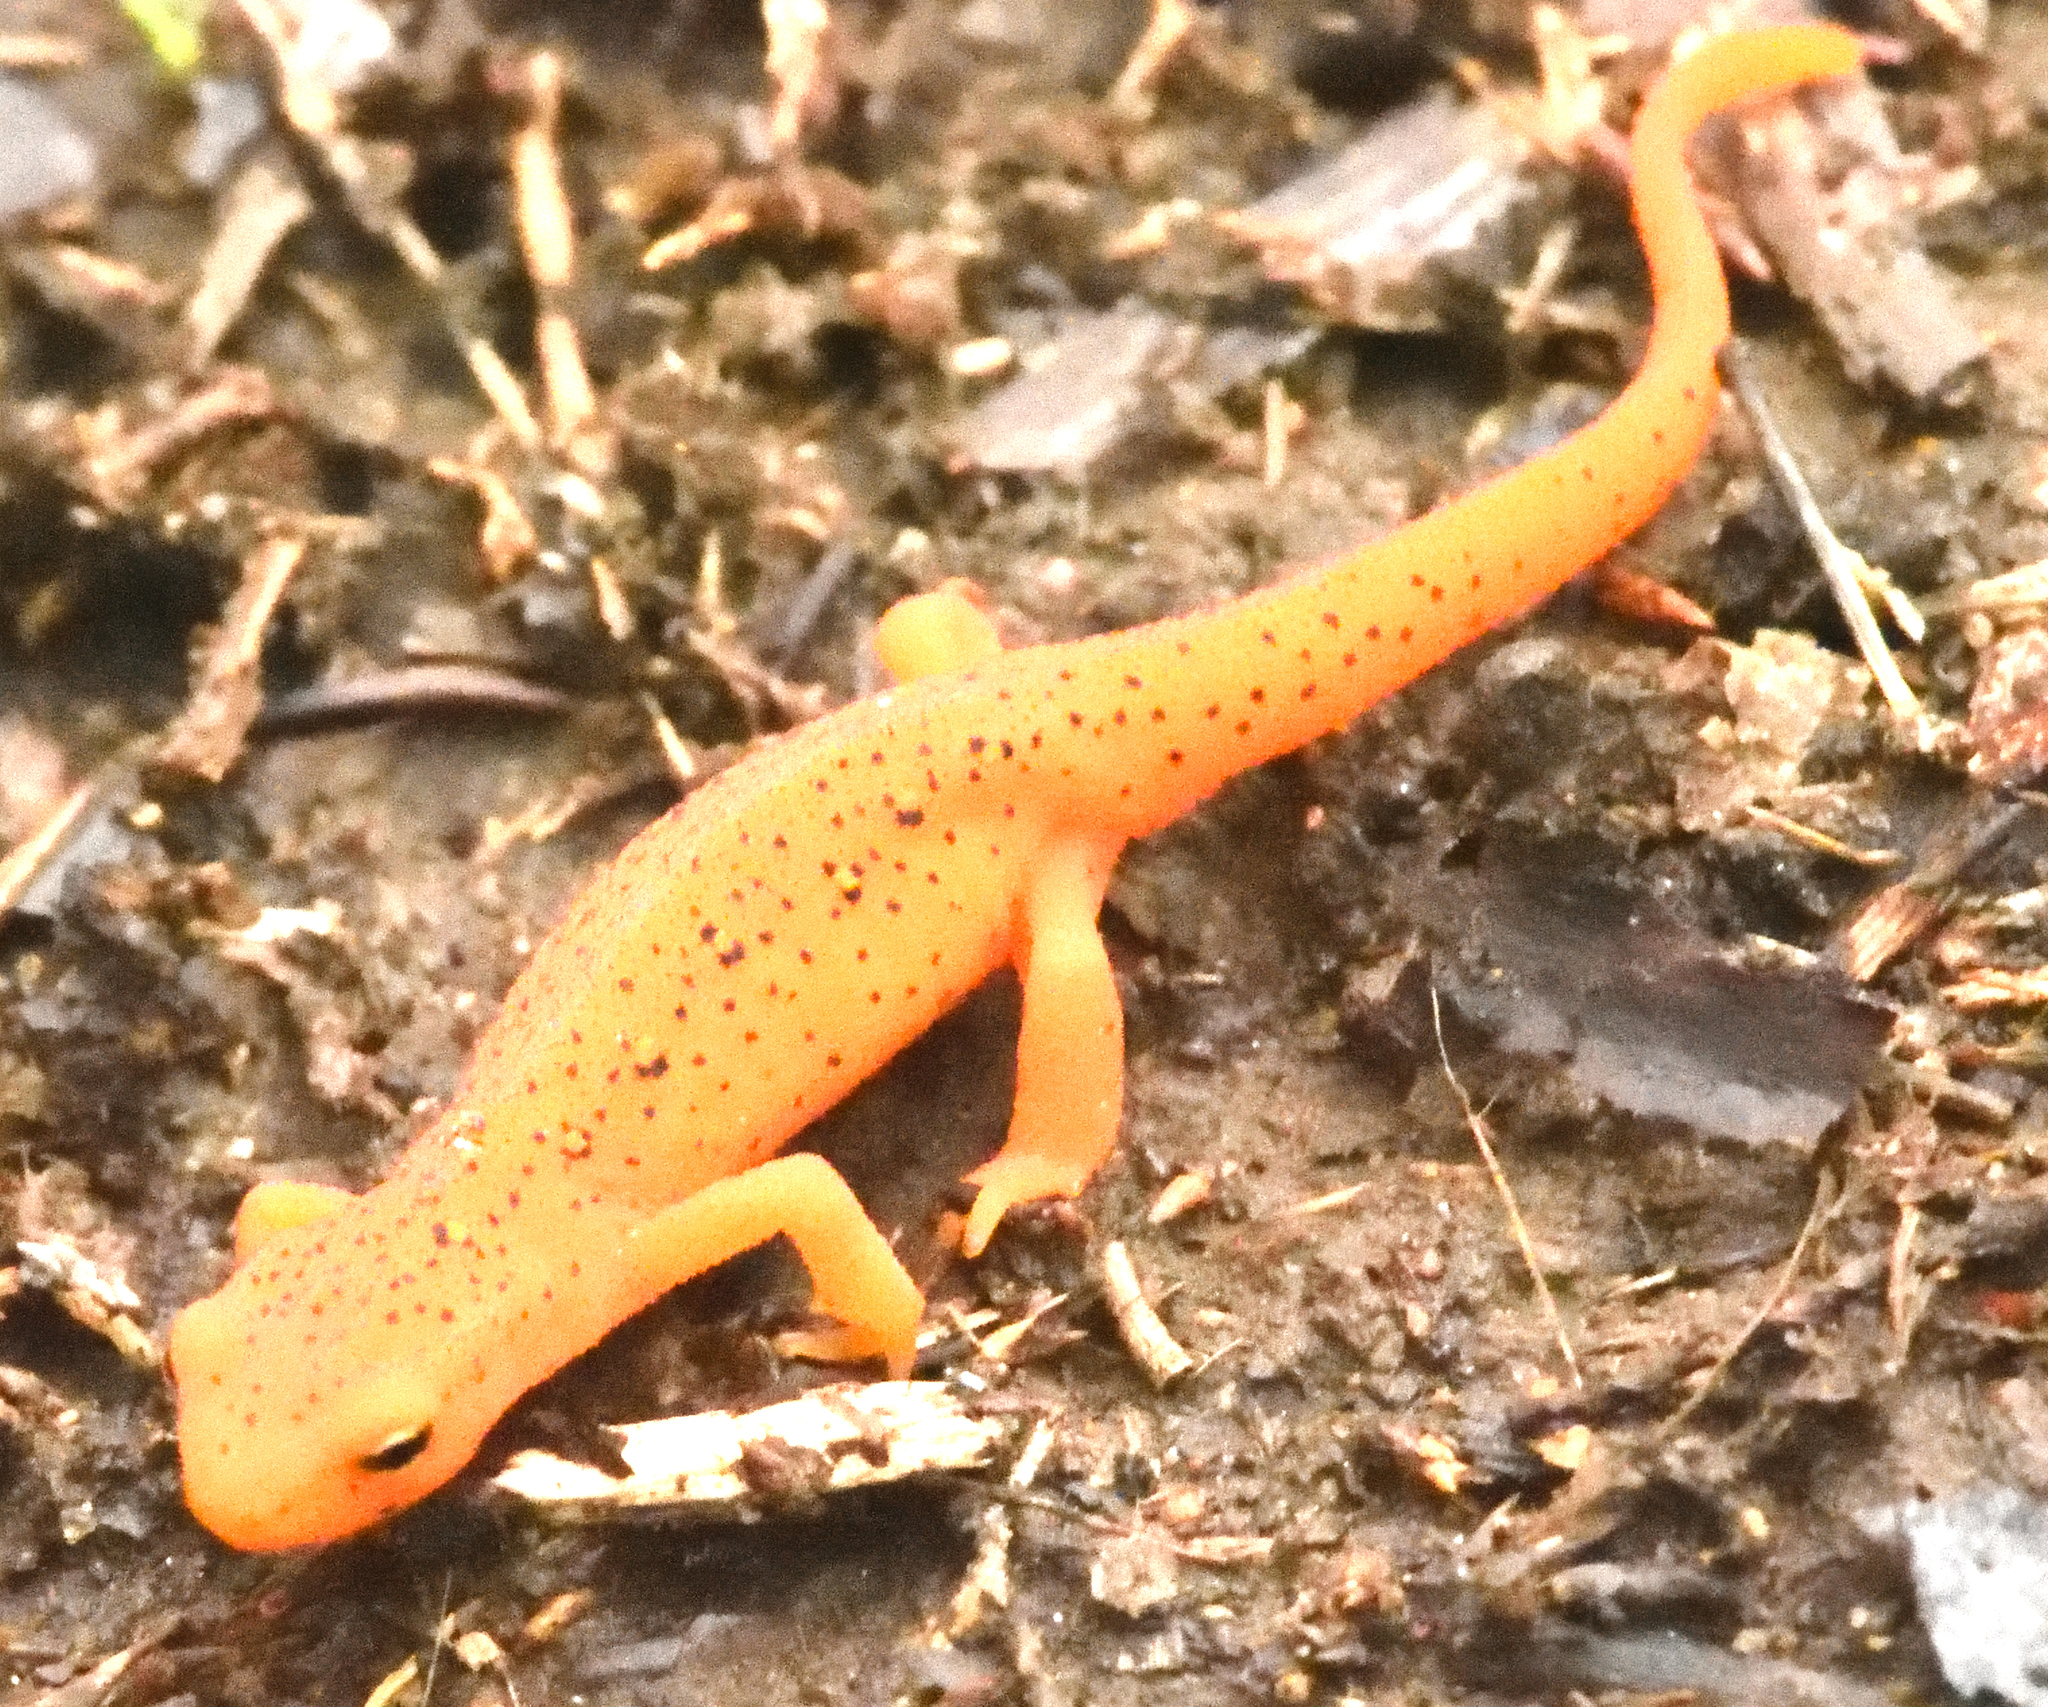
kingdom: Animalia
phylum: Chordata
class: Amphibia
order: Caudata
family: Salamandridae
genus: Notophthalmus
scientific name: Notophthalmus viridescens
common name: Eastern newt
